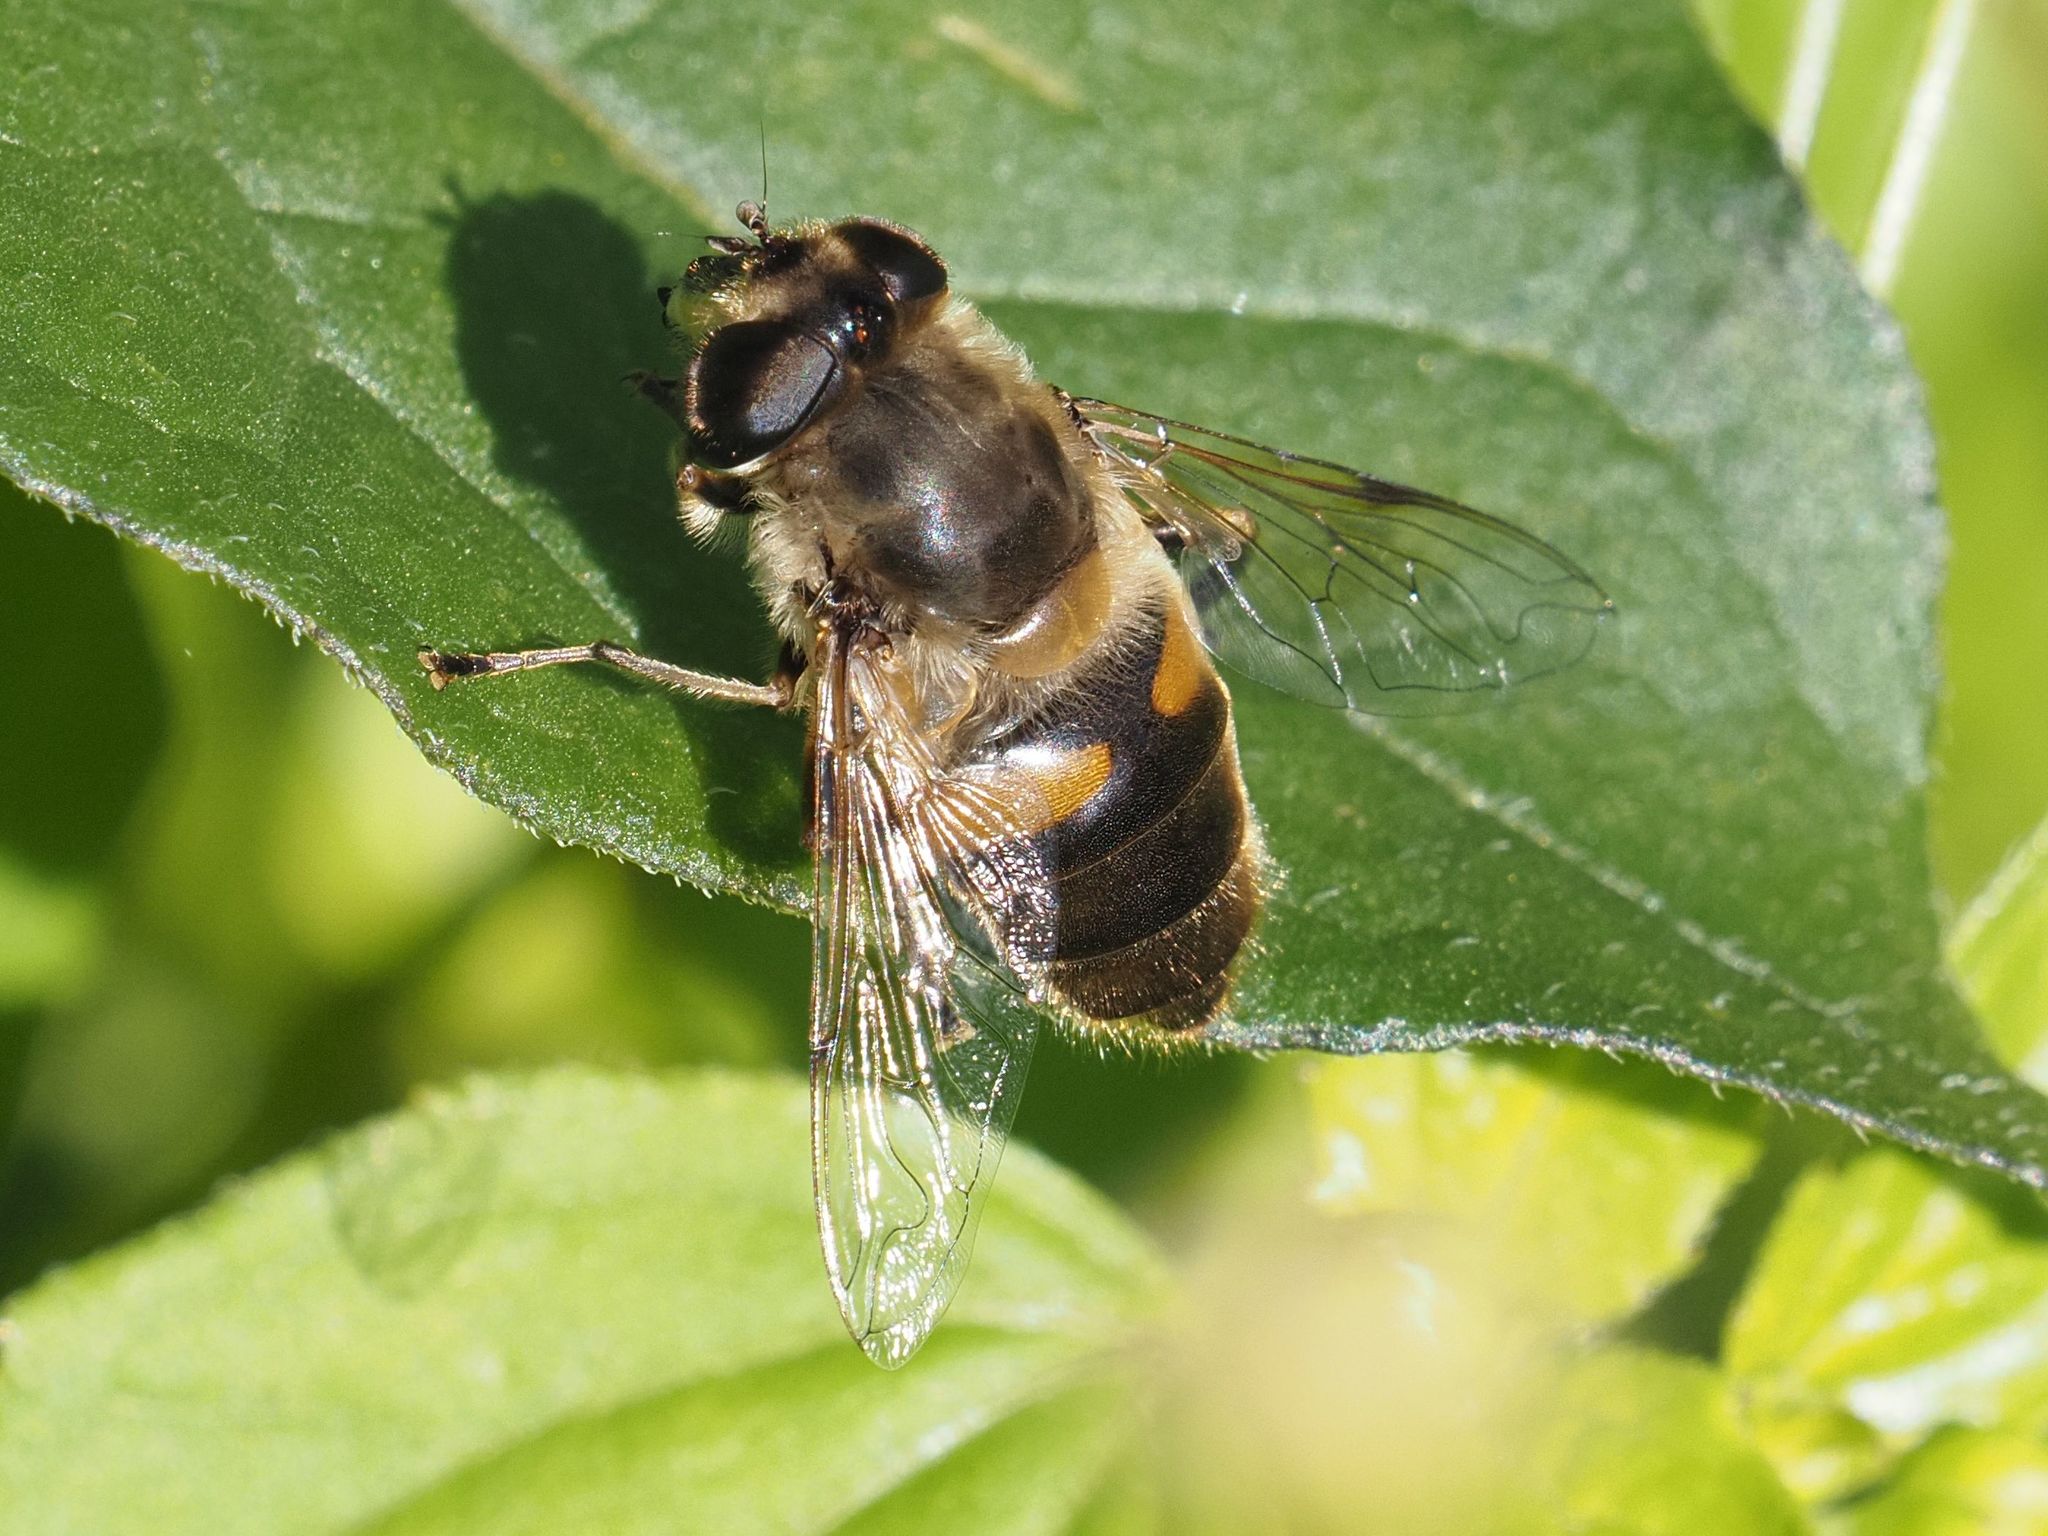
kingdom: Animalia
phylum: Arthropoda
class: Insecta
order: Diptera
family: Syrphidae
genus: Eristalis
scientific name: Eristalis tenax
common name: Drone fly
